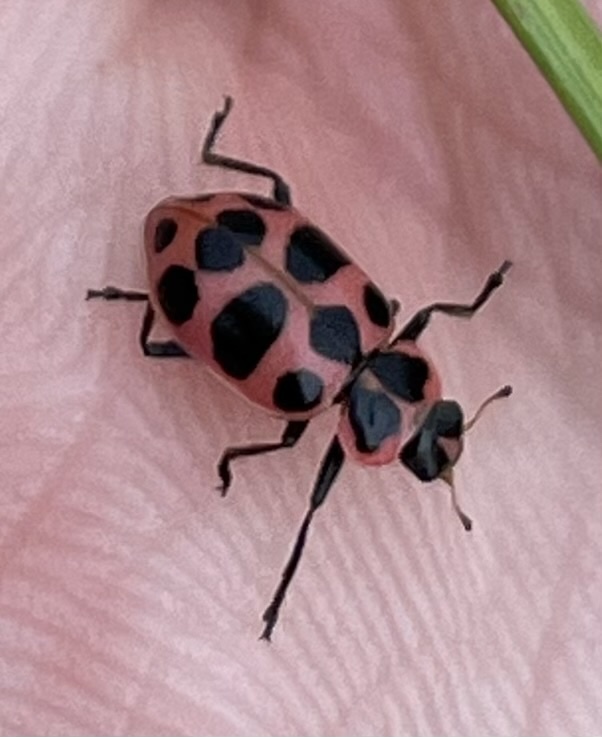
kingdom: Animalia
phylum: Arthropoda
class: Insecta
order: Coleoptera
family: Coccinellidae
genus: Coleomegilla
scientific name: Coleomegilla maculata
